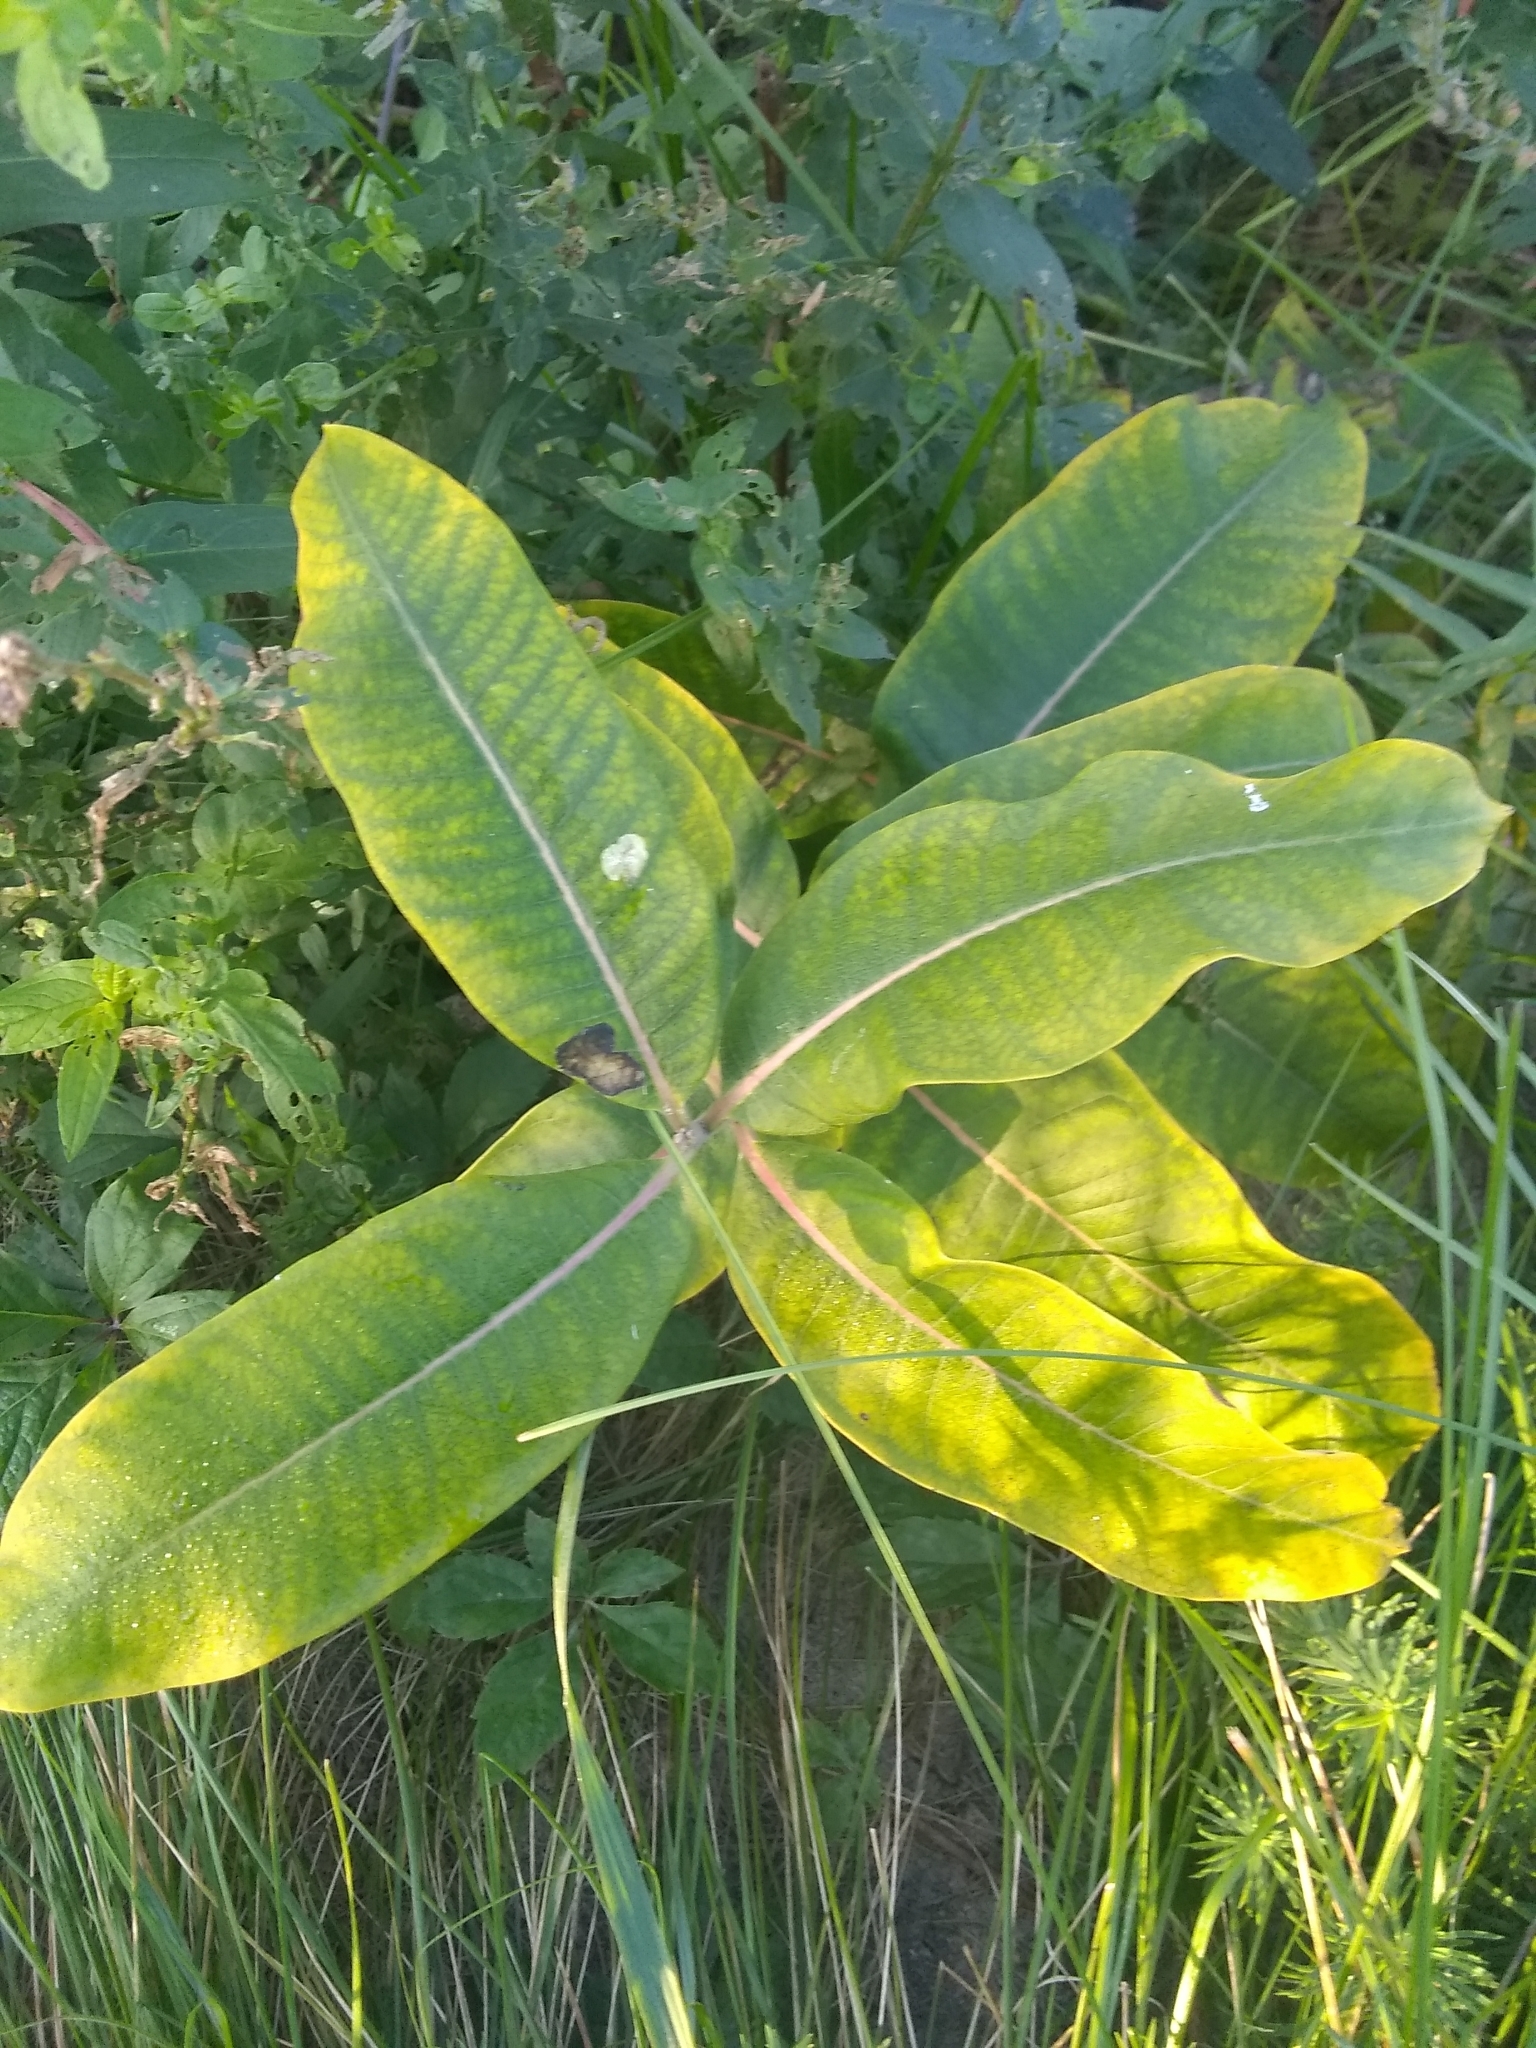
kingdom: Plantae
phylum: Tracheophyta
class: Magnoliopsida
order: Gentianales
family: Apocynaceae
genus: Asclepias
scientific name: Asclepias syriaca
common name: Common milkweed
